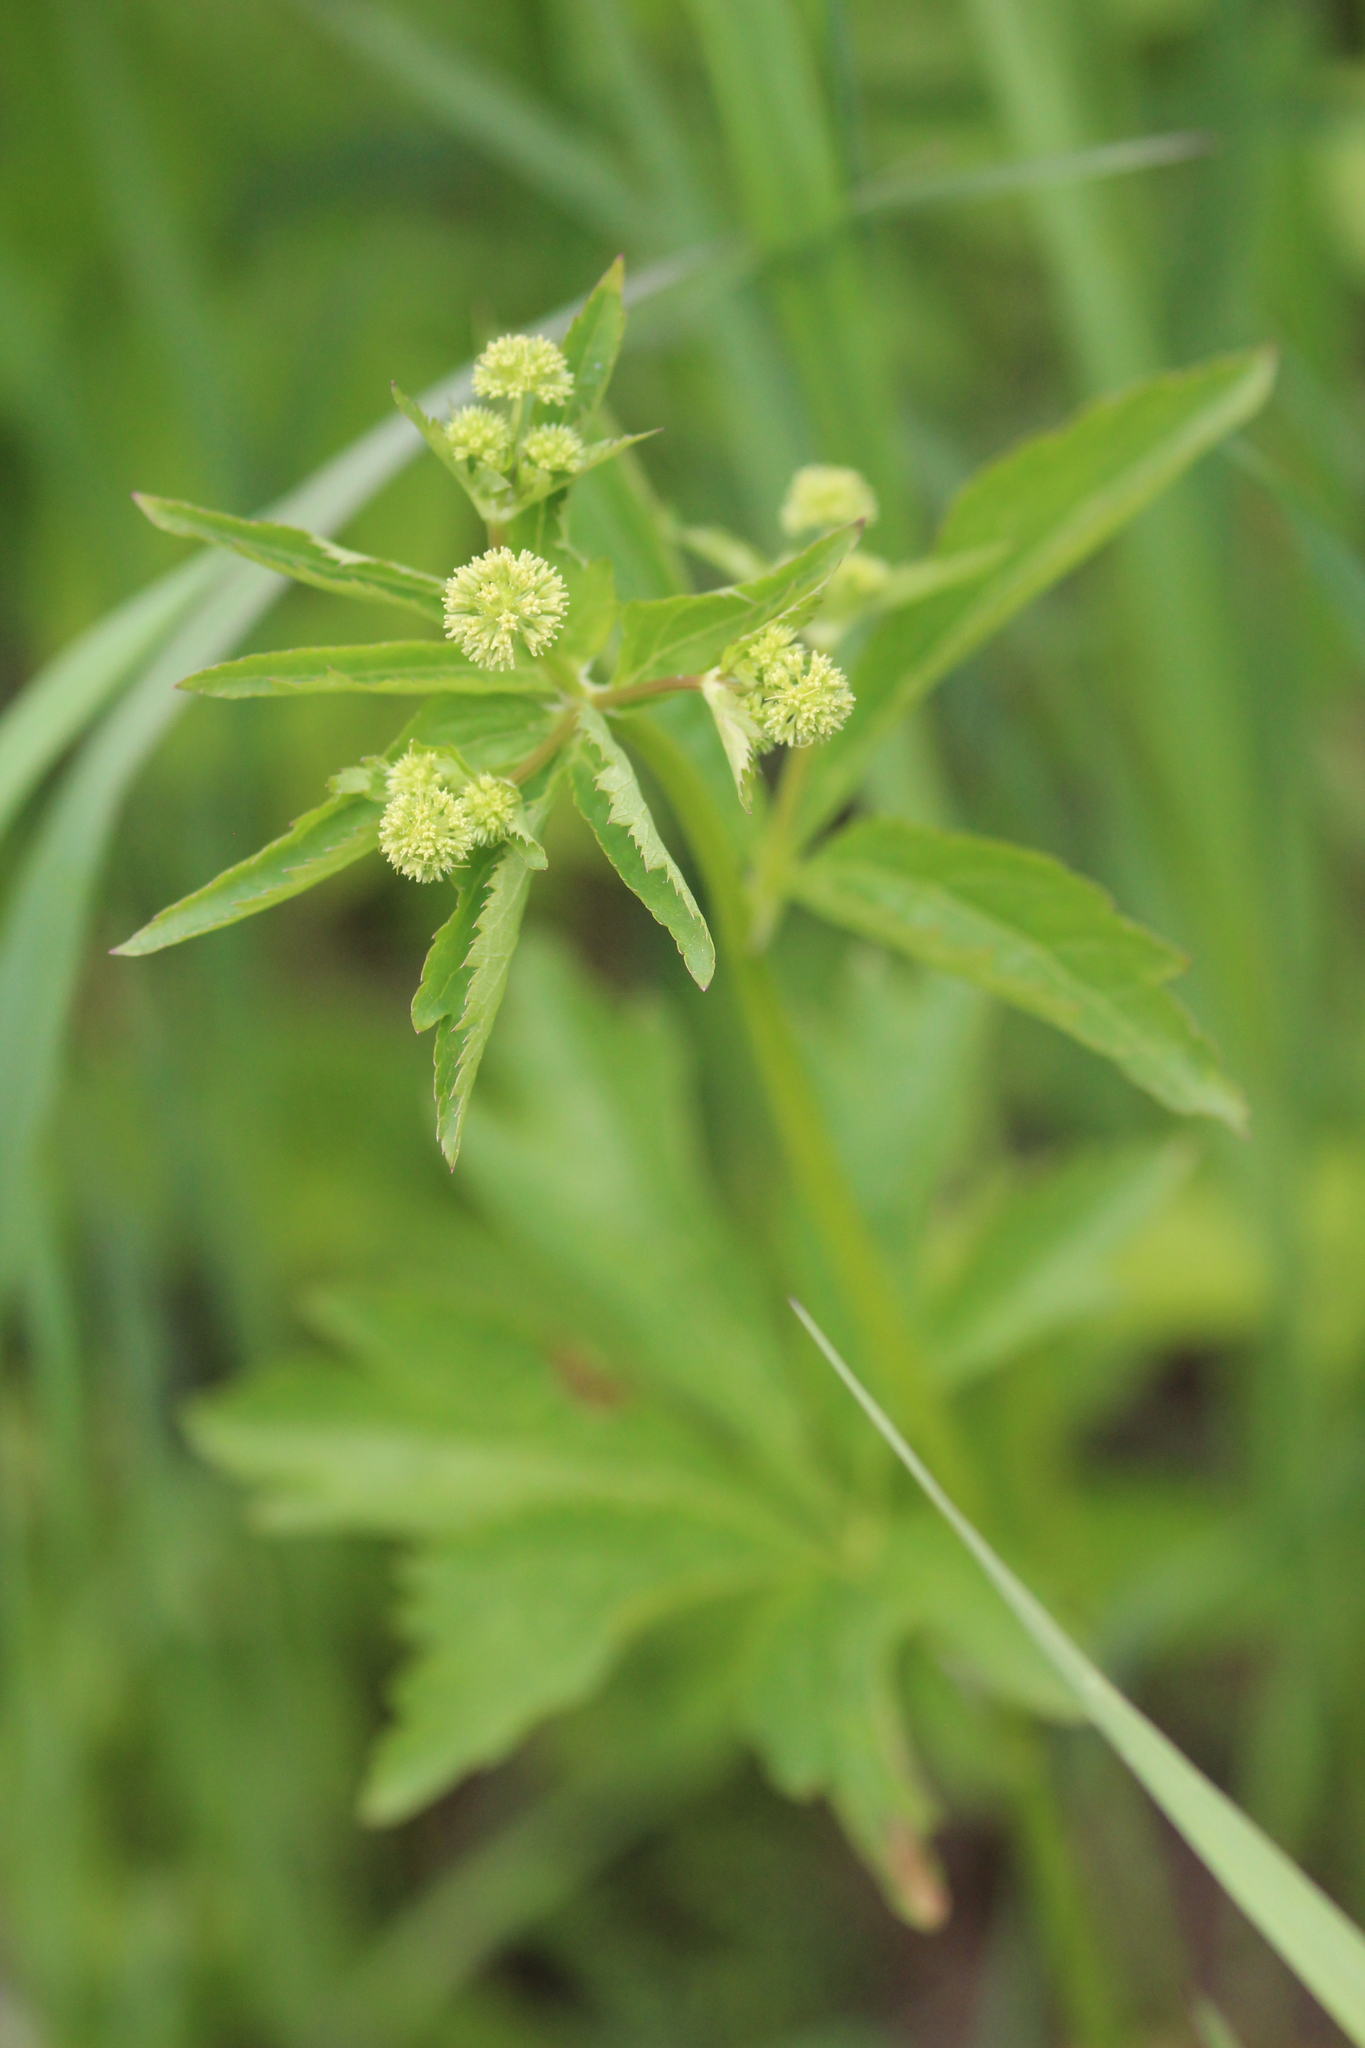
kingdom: Plantae
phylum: Tracheophyta
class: Magnoliopsida
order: Apiales
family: Apiaceae
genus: Sanicula
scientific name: Sanicula marilandica
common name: Black snakeroot
